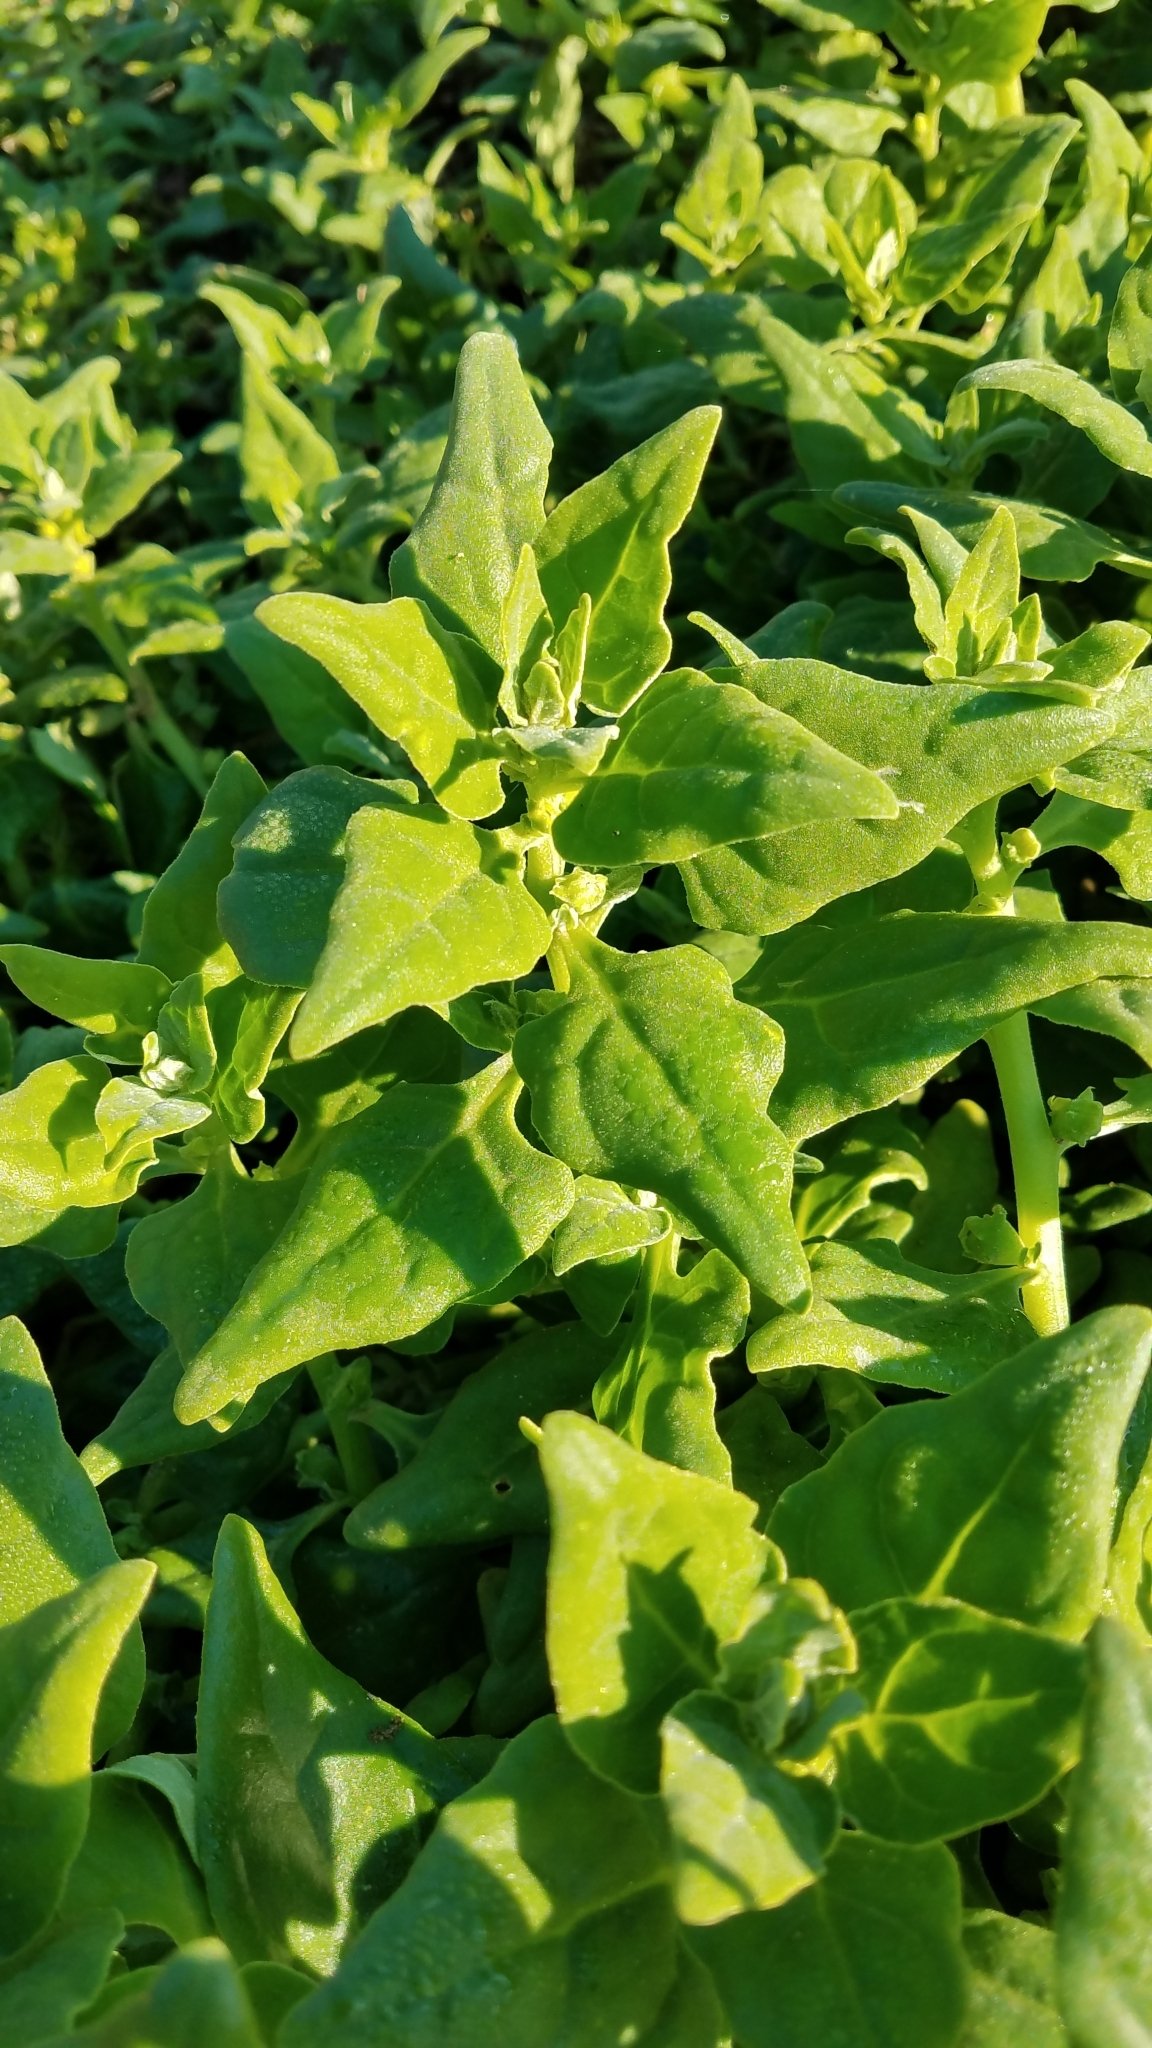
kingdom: Plantae
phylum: Tracheophyta
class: Magnoliopsida
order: Caryophyllales
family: Aizoaceae
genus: Tetragonia
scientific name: Tetragonia tetragonoides
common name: New zealand-spinach
